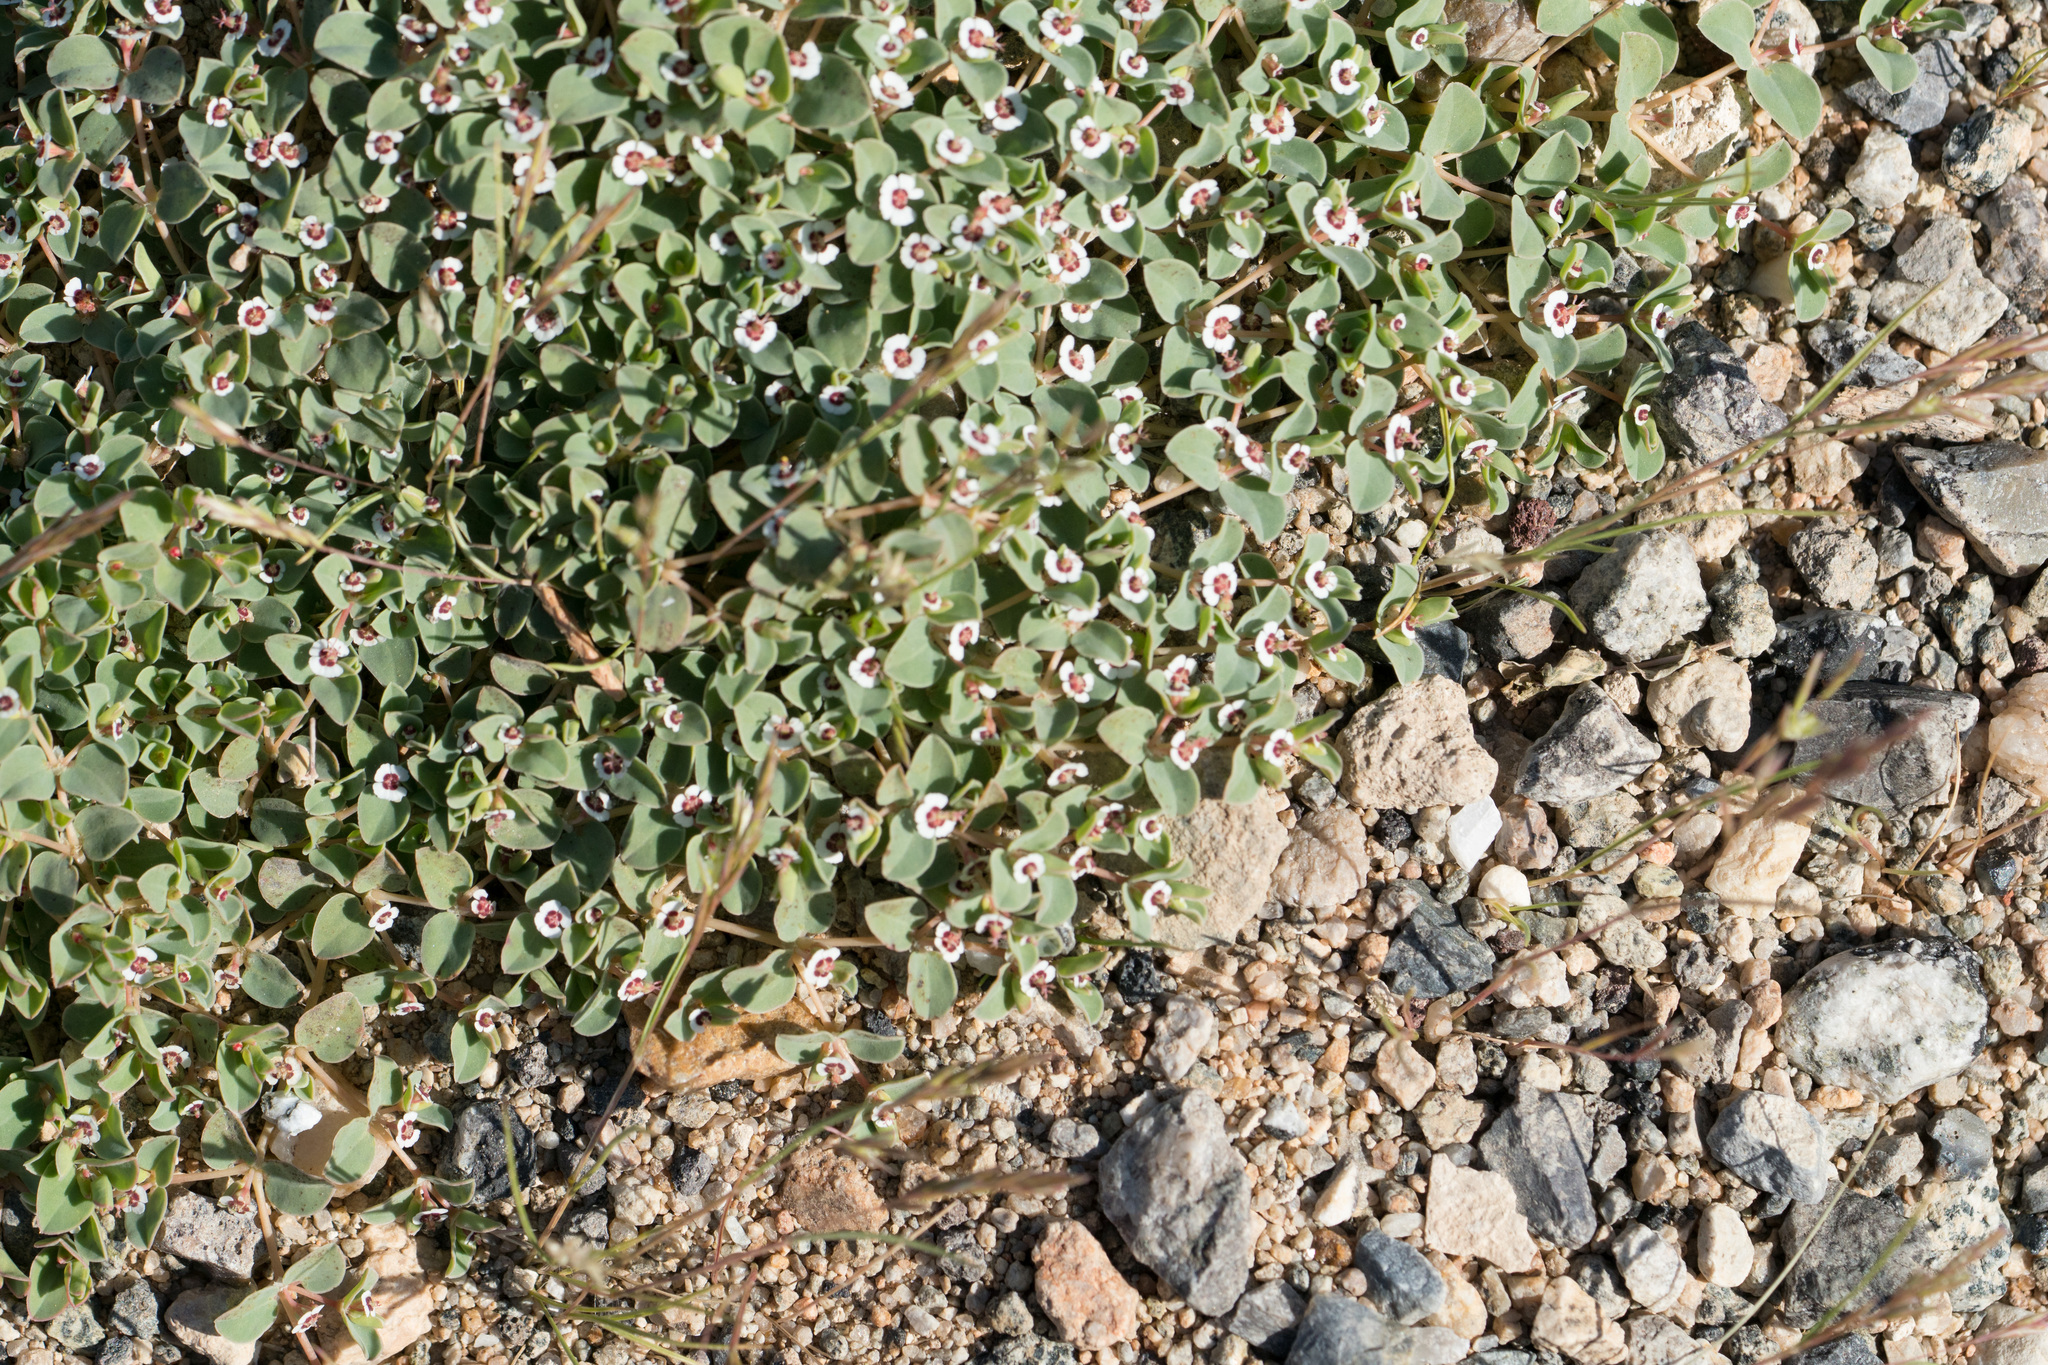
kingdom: Plantae
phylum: Tracheophyta
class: Magnoliopsida
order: Malpighiales
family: Euphorbiaceae
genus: Euphorbia
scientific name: Euphorbia albomarginata
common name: Whitemargin sandmat
